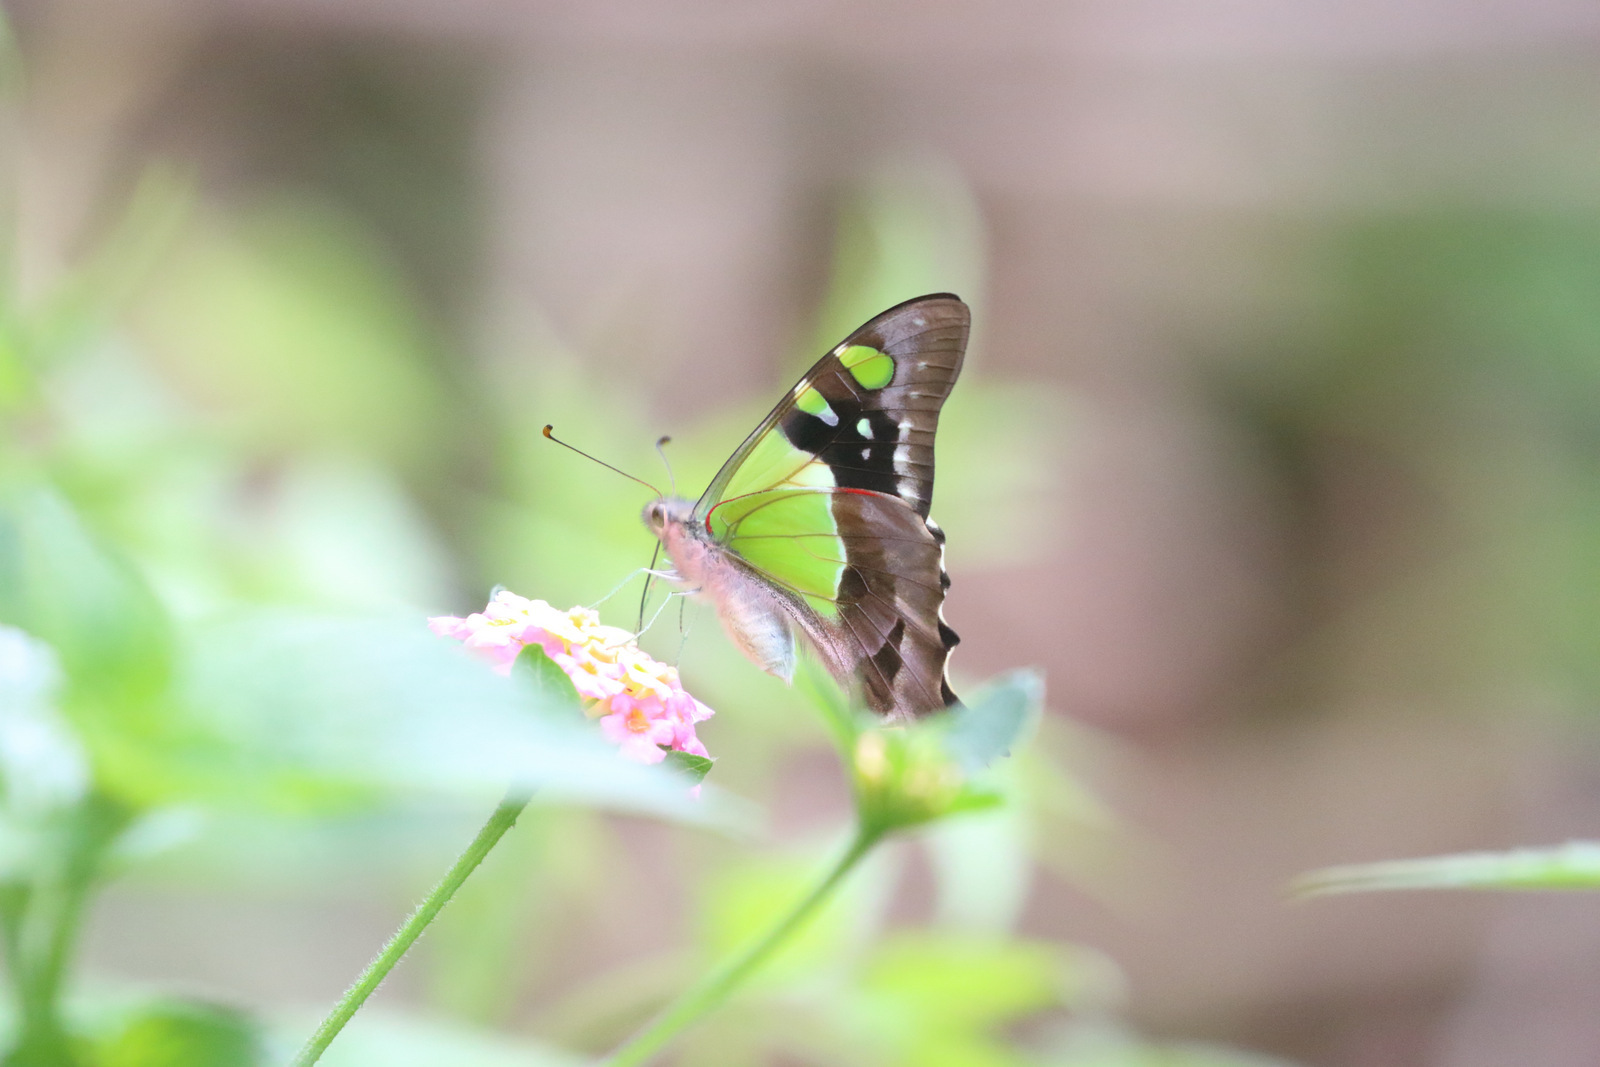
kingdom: Animalia
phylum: Arthropoda
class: Insecta
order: Lepidoptera
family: Papilionidae
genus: Graphium
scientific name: Graphium macleayanus
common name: Macleay's swallowtail
